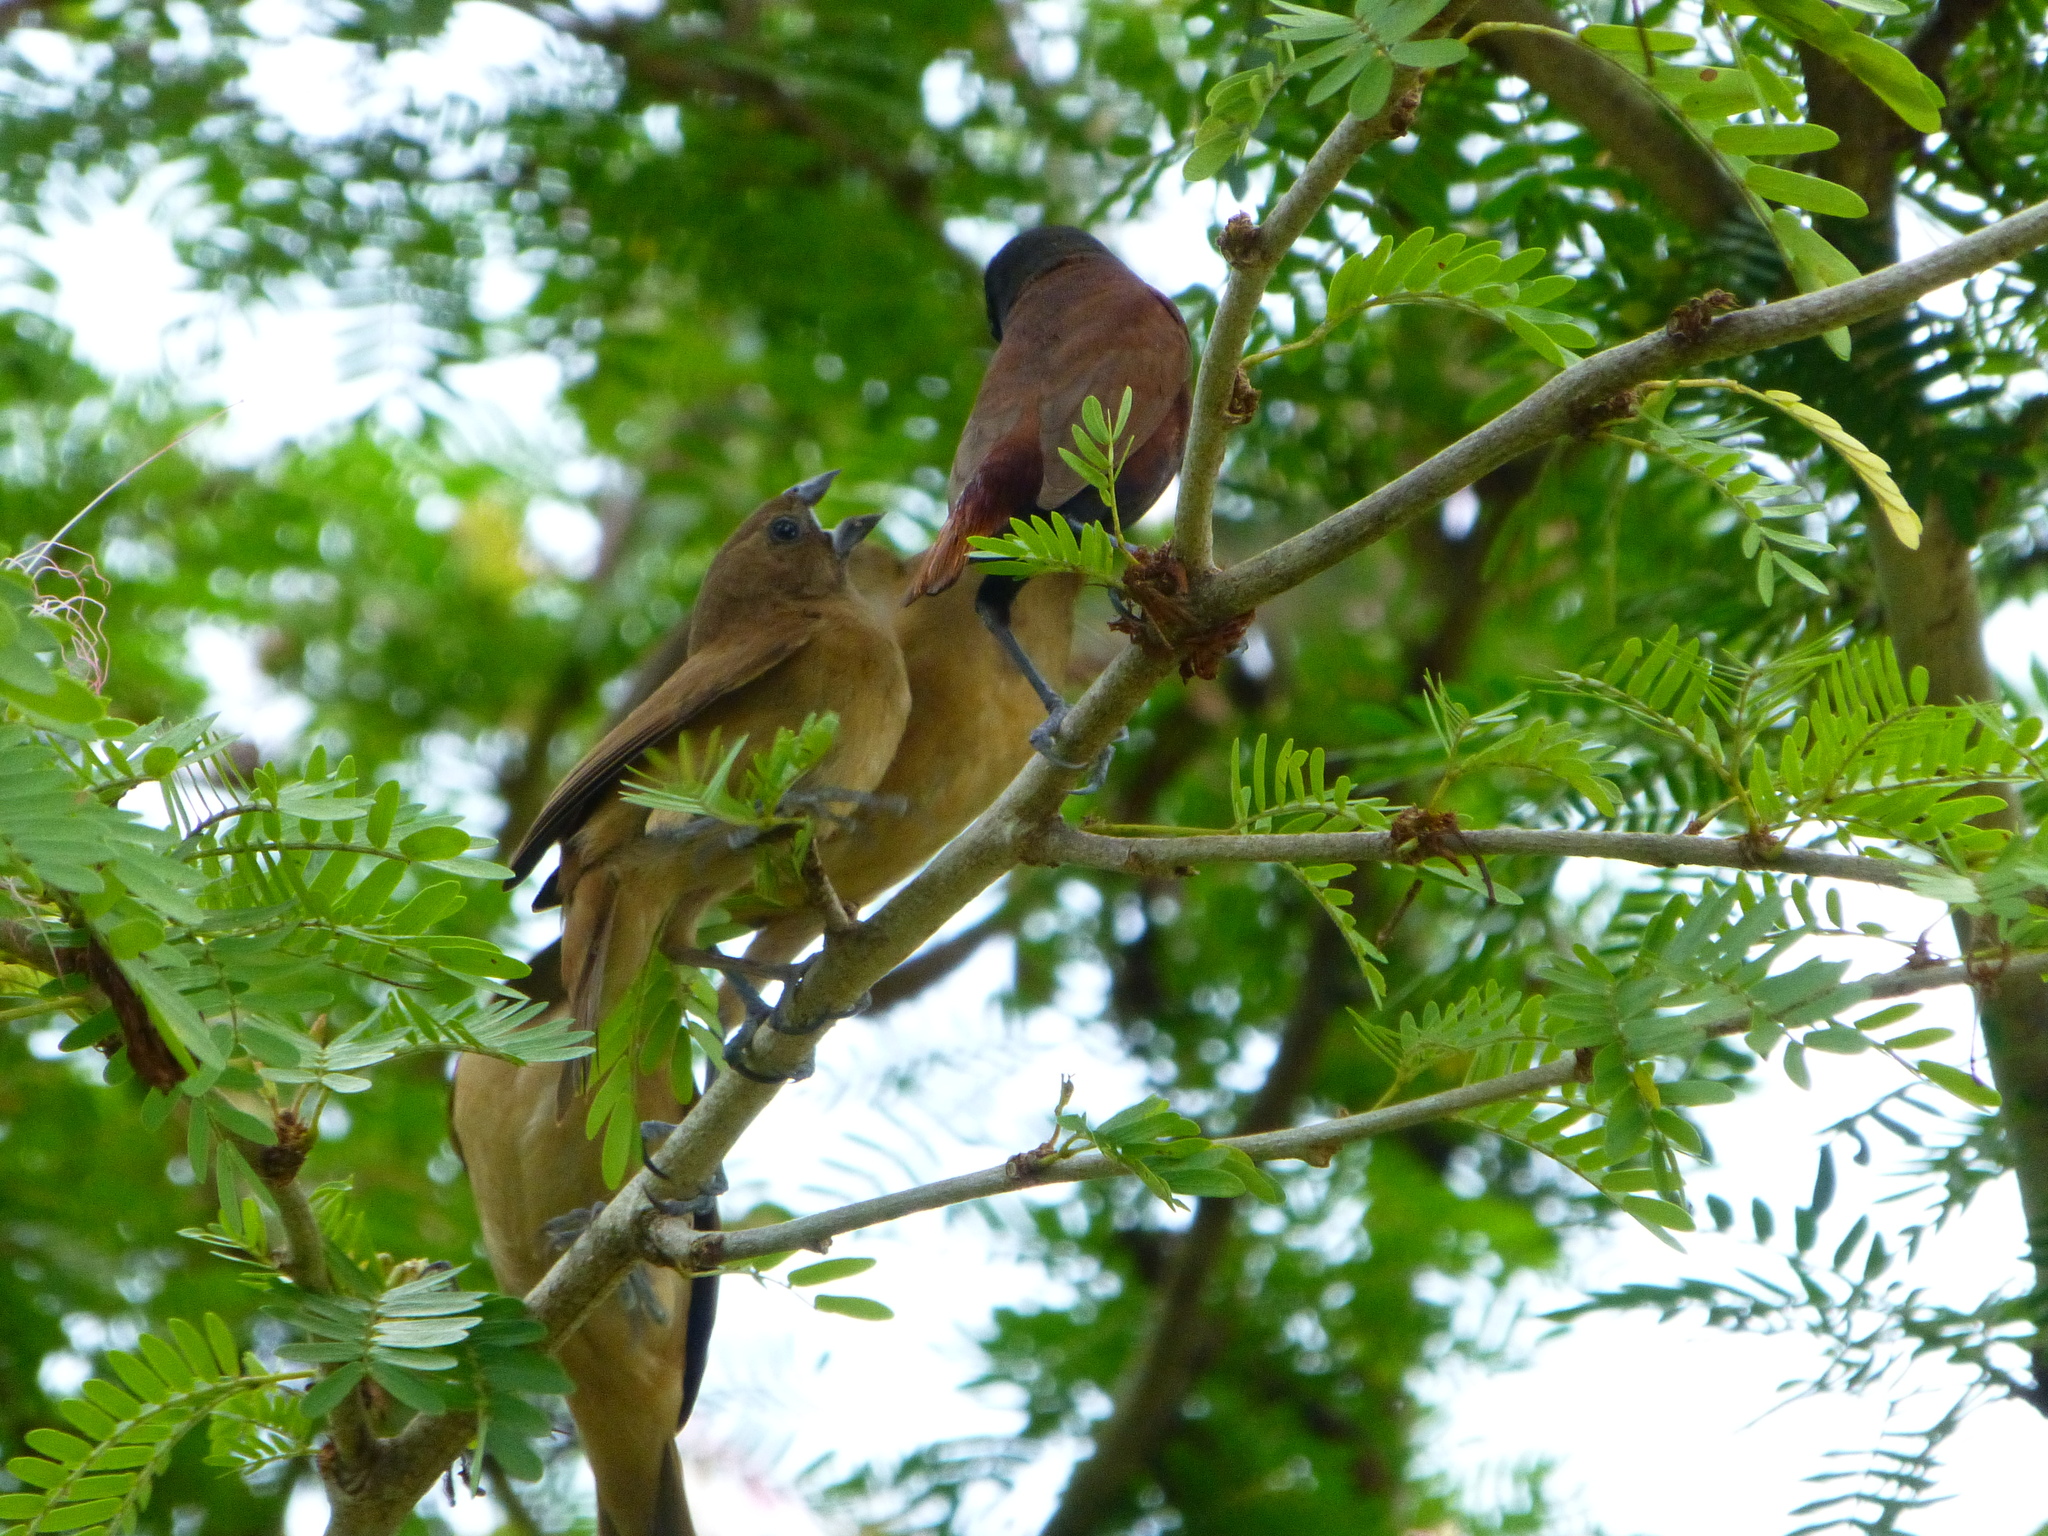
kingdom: Animalia
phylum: Chordata
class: Aves
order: Passeriformes
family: Estrildidae
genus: Lonchura
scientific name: Lonchura atricapilla
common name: Chestnut munia
